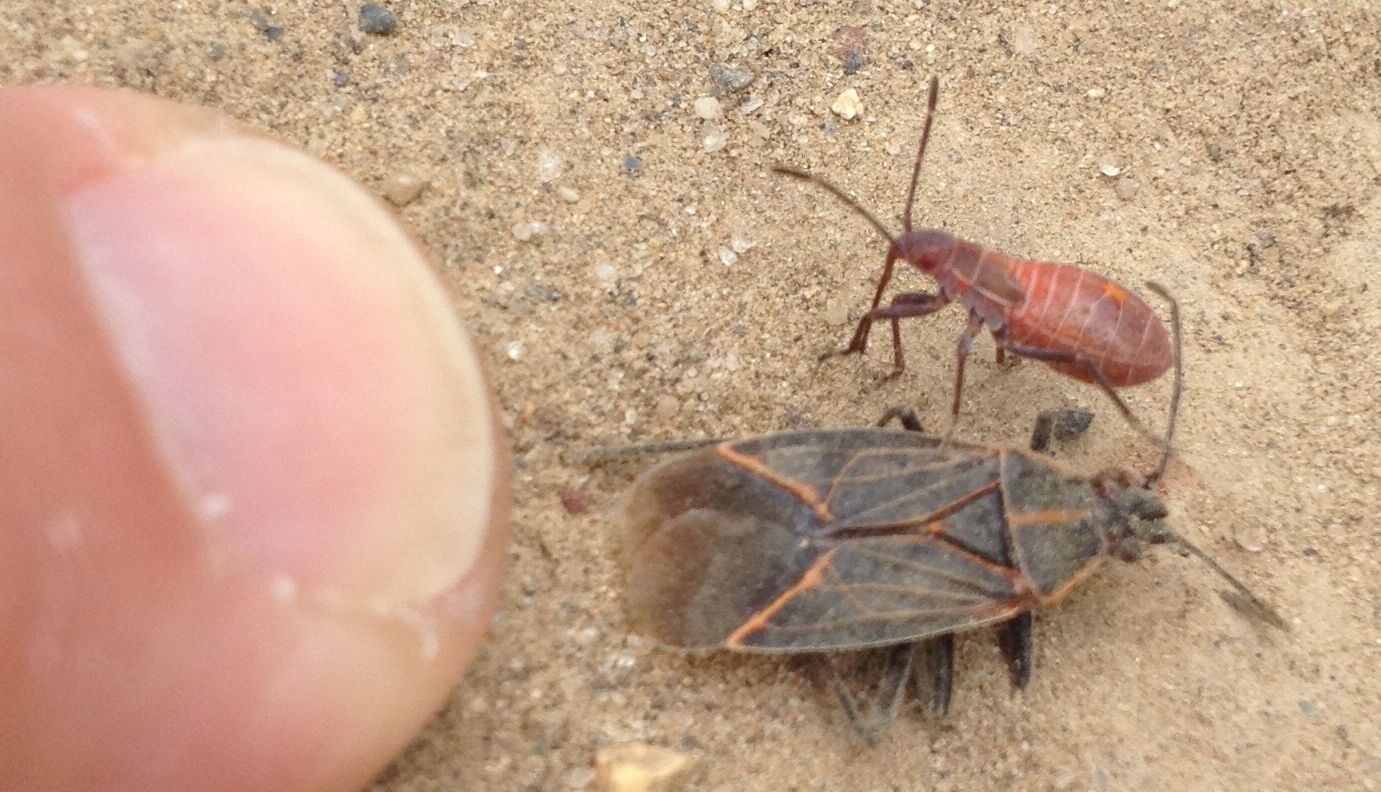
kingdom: Animalia
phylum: Arthropoda
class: Insecta
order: Hemiptera
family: Rhopalidae
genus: Boisea
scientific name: Boisea rubrolineata
